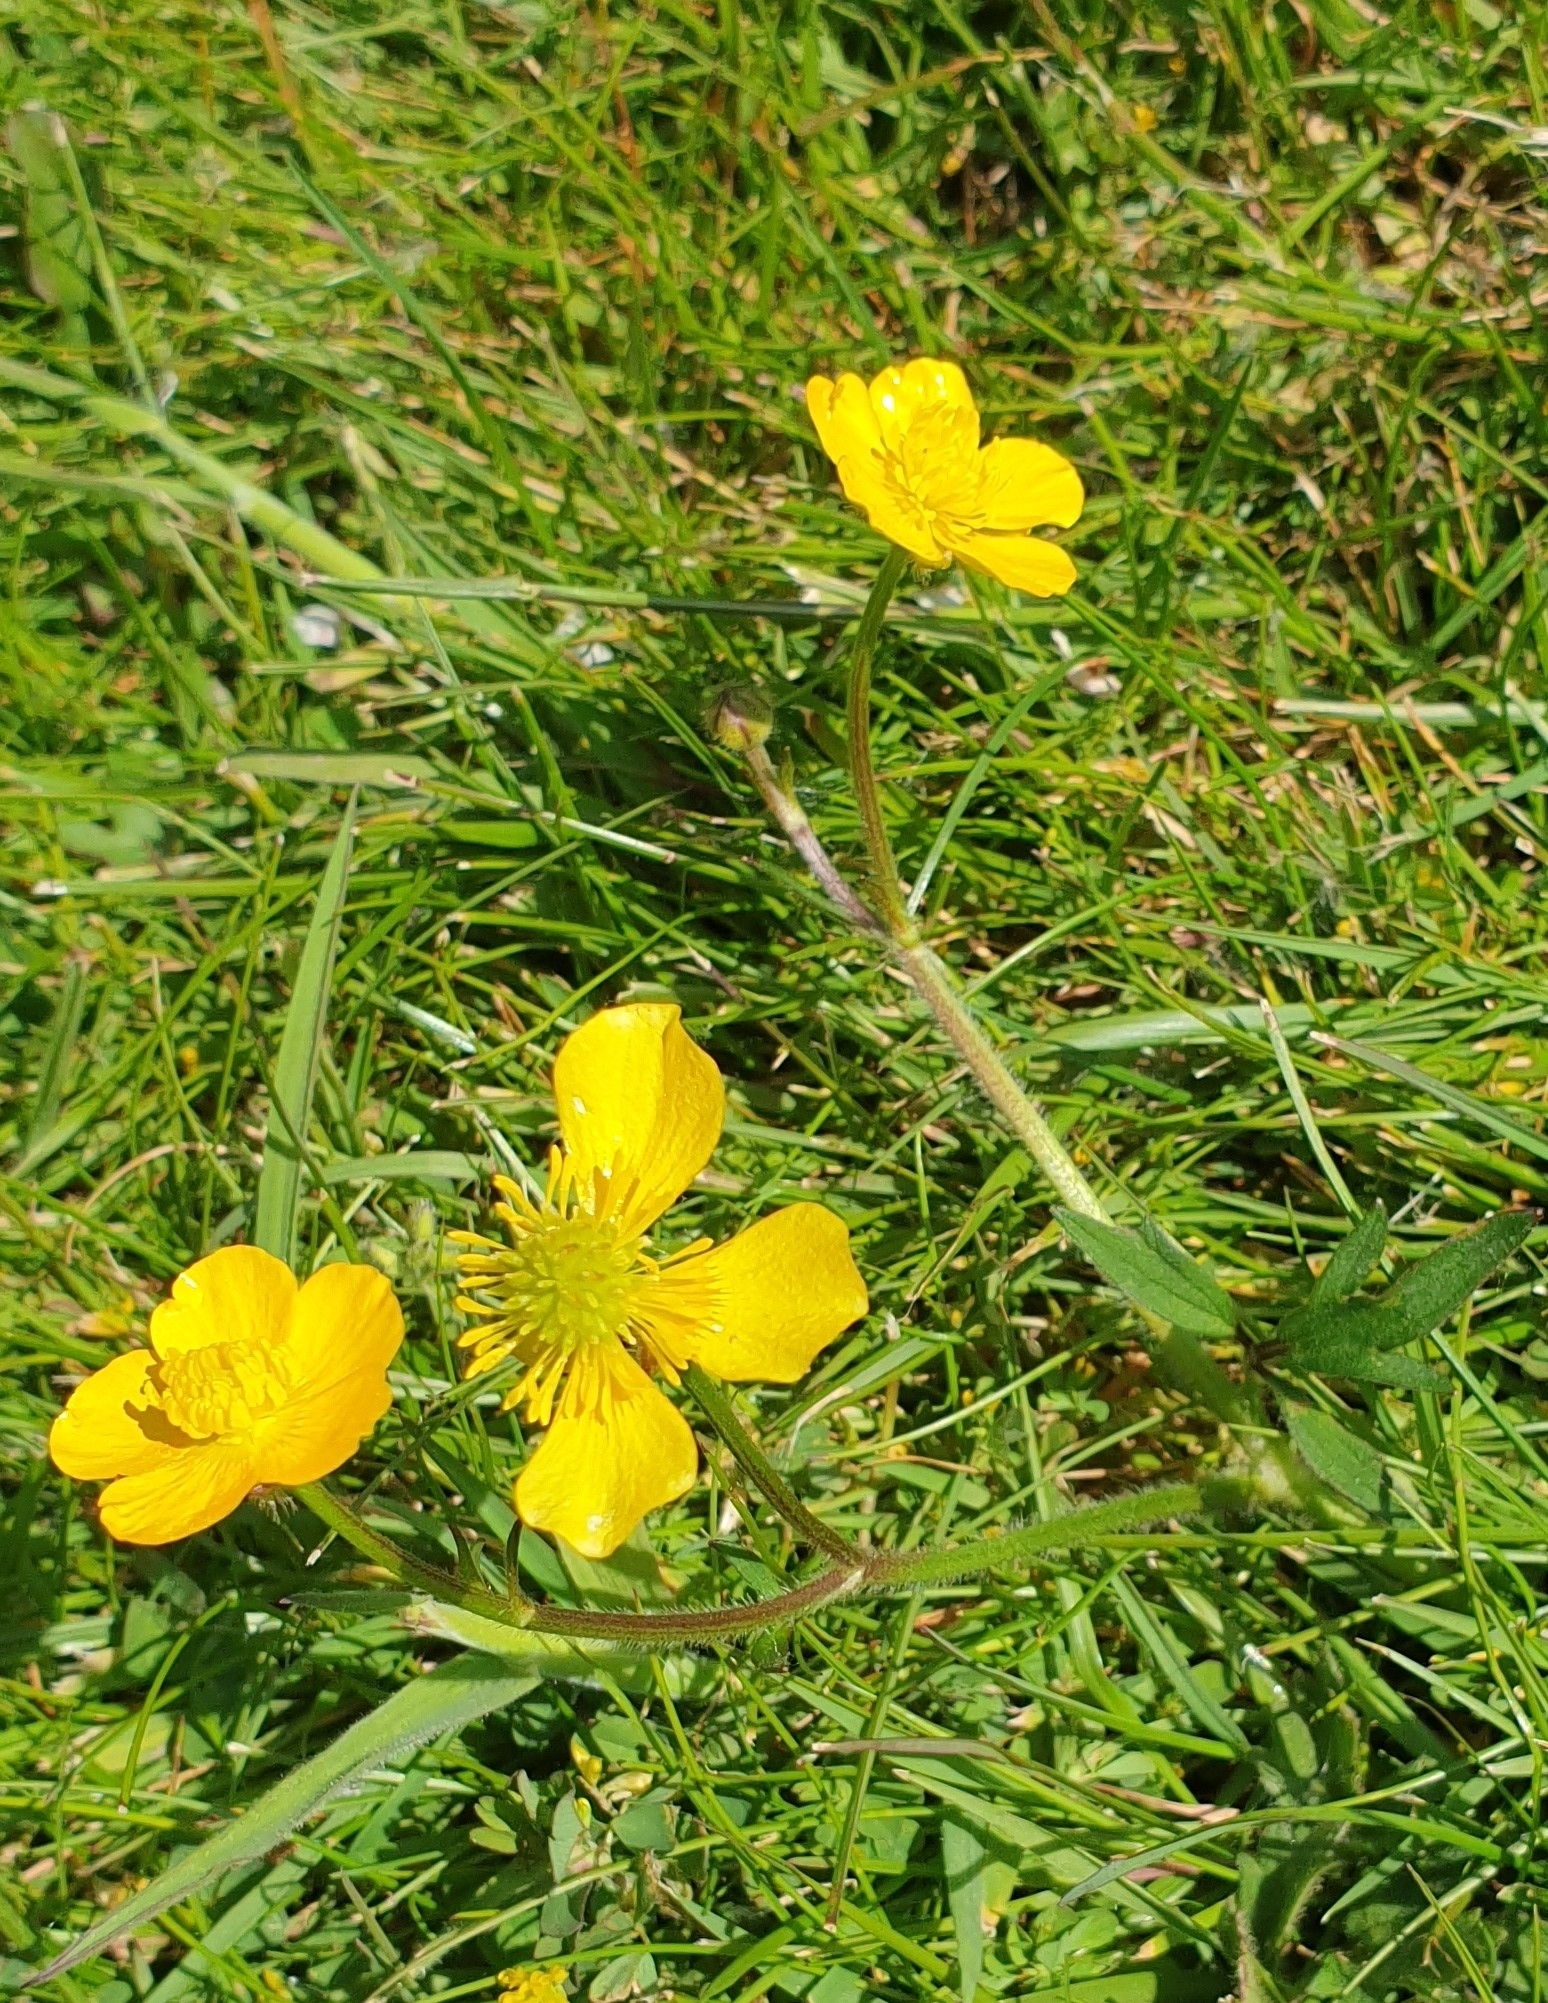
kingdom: Plantae
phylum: Tracheophyta
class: Magnoliopsida
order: Ranunculales
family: Ranunculaceae
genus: Ranunculus
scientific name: Ranunculus repens
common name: Creeping buttercup
